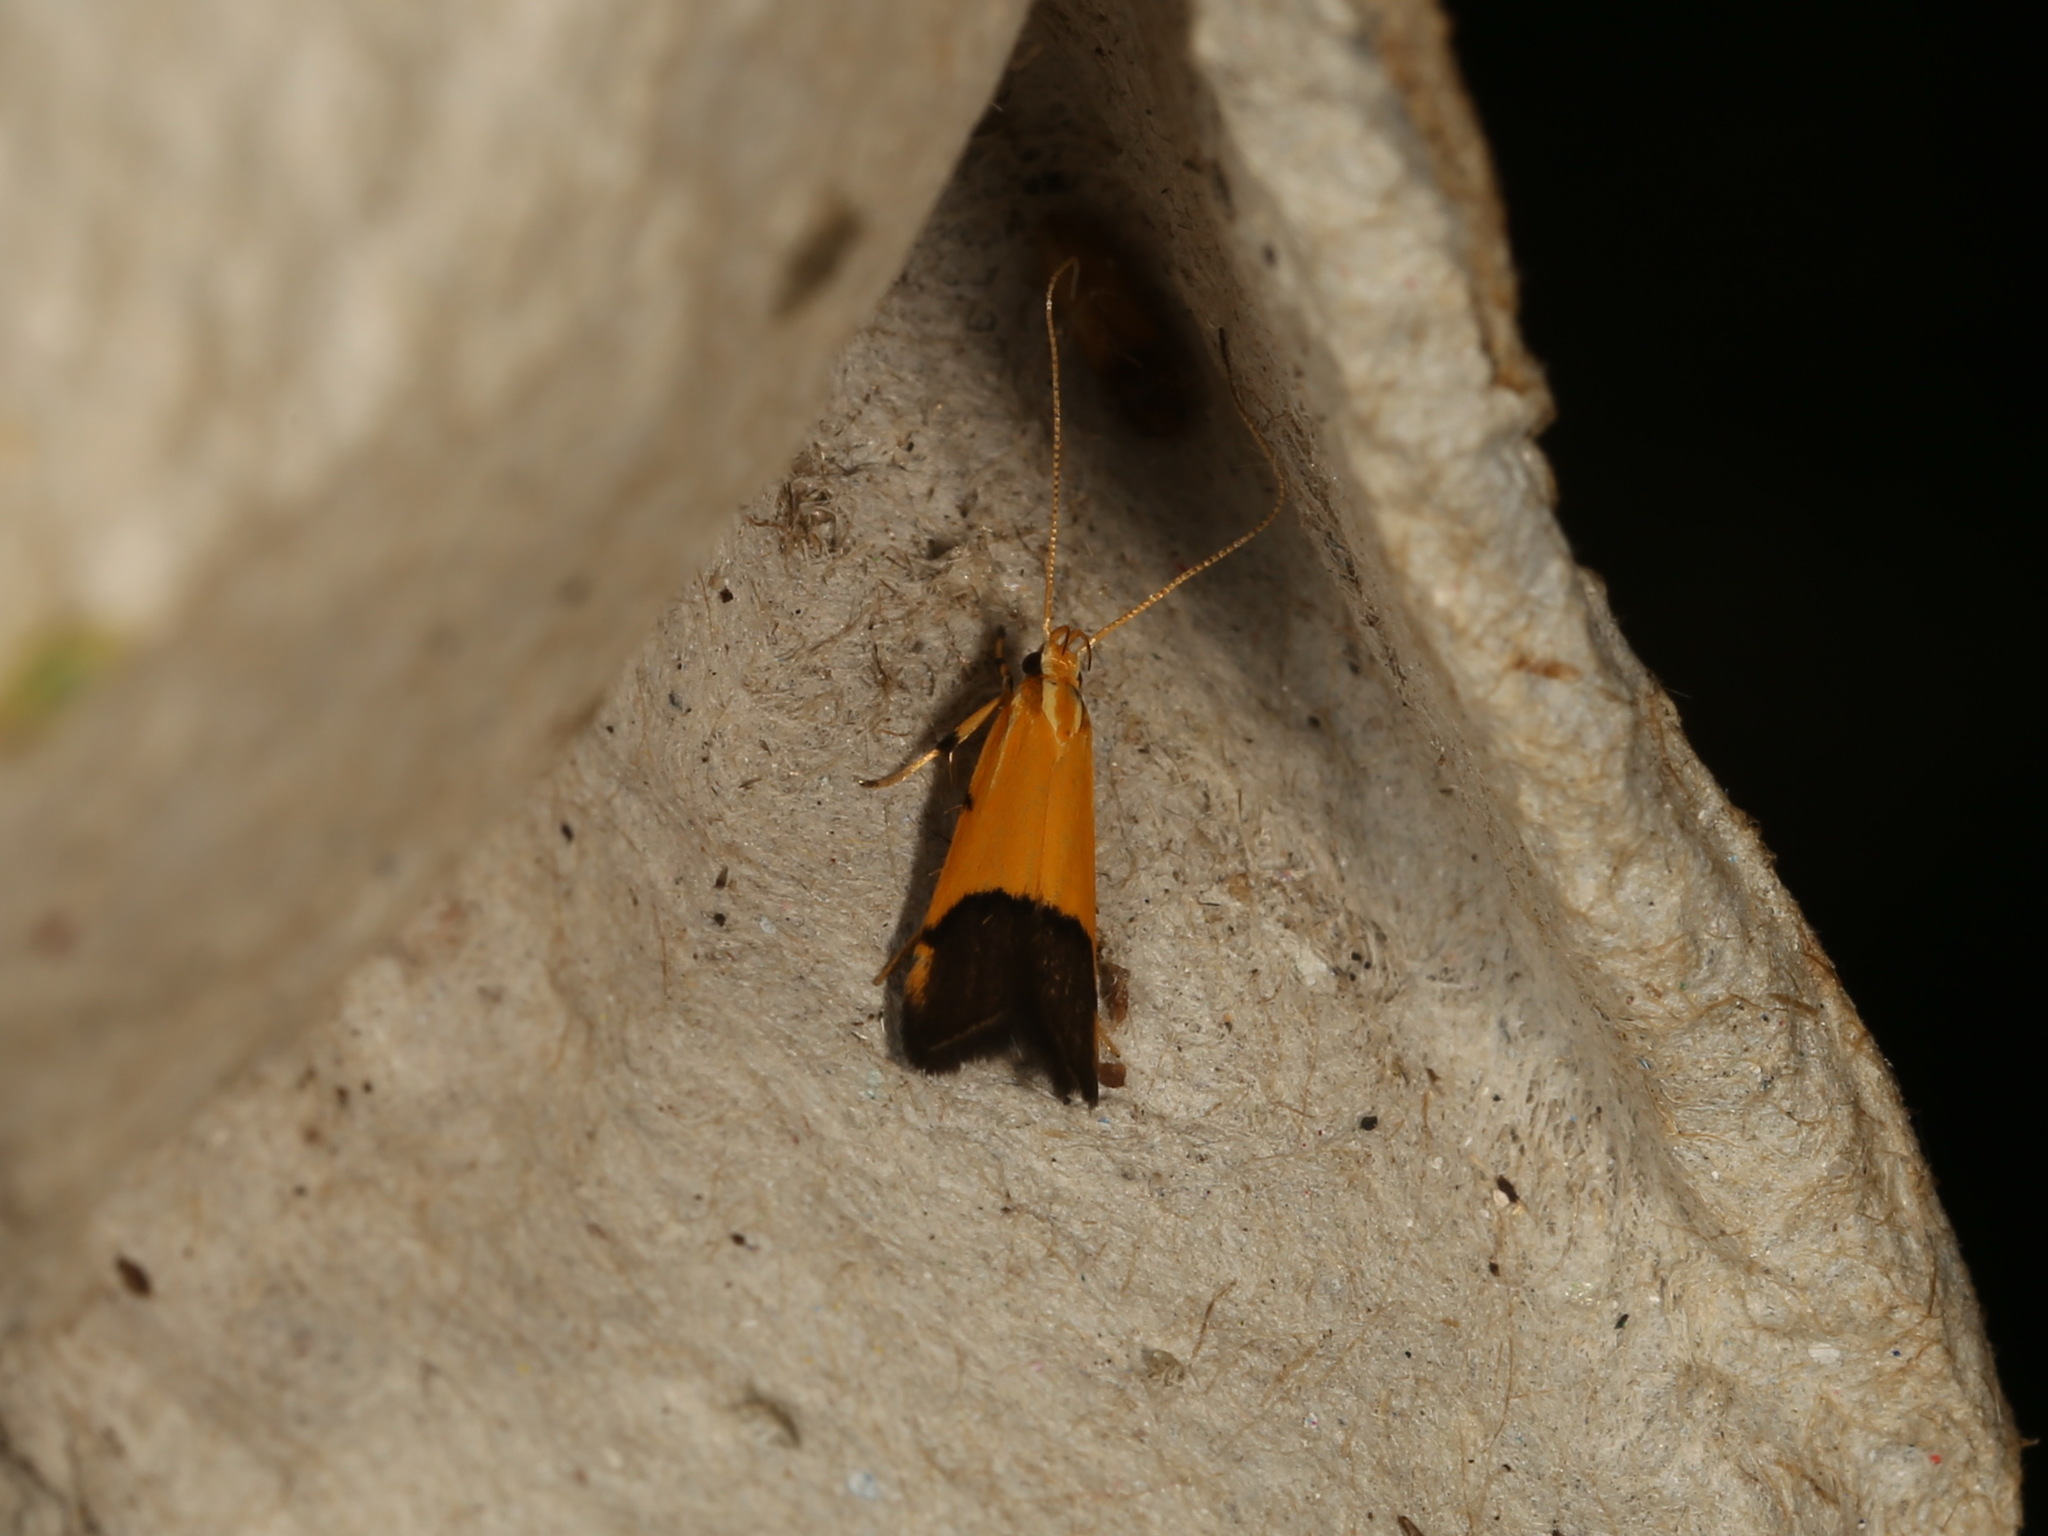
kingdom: Animalia
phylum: Arthropoda
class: Insecta
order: Lepidoptera
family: Lecithoceridae
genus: Crocanthes
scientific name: Crocanthes micradelpha
